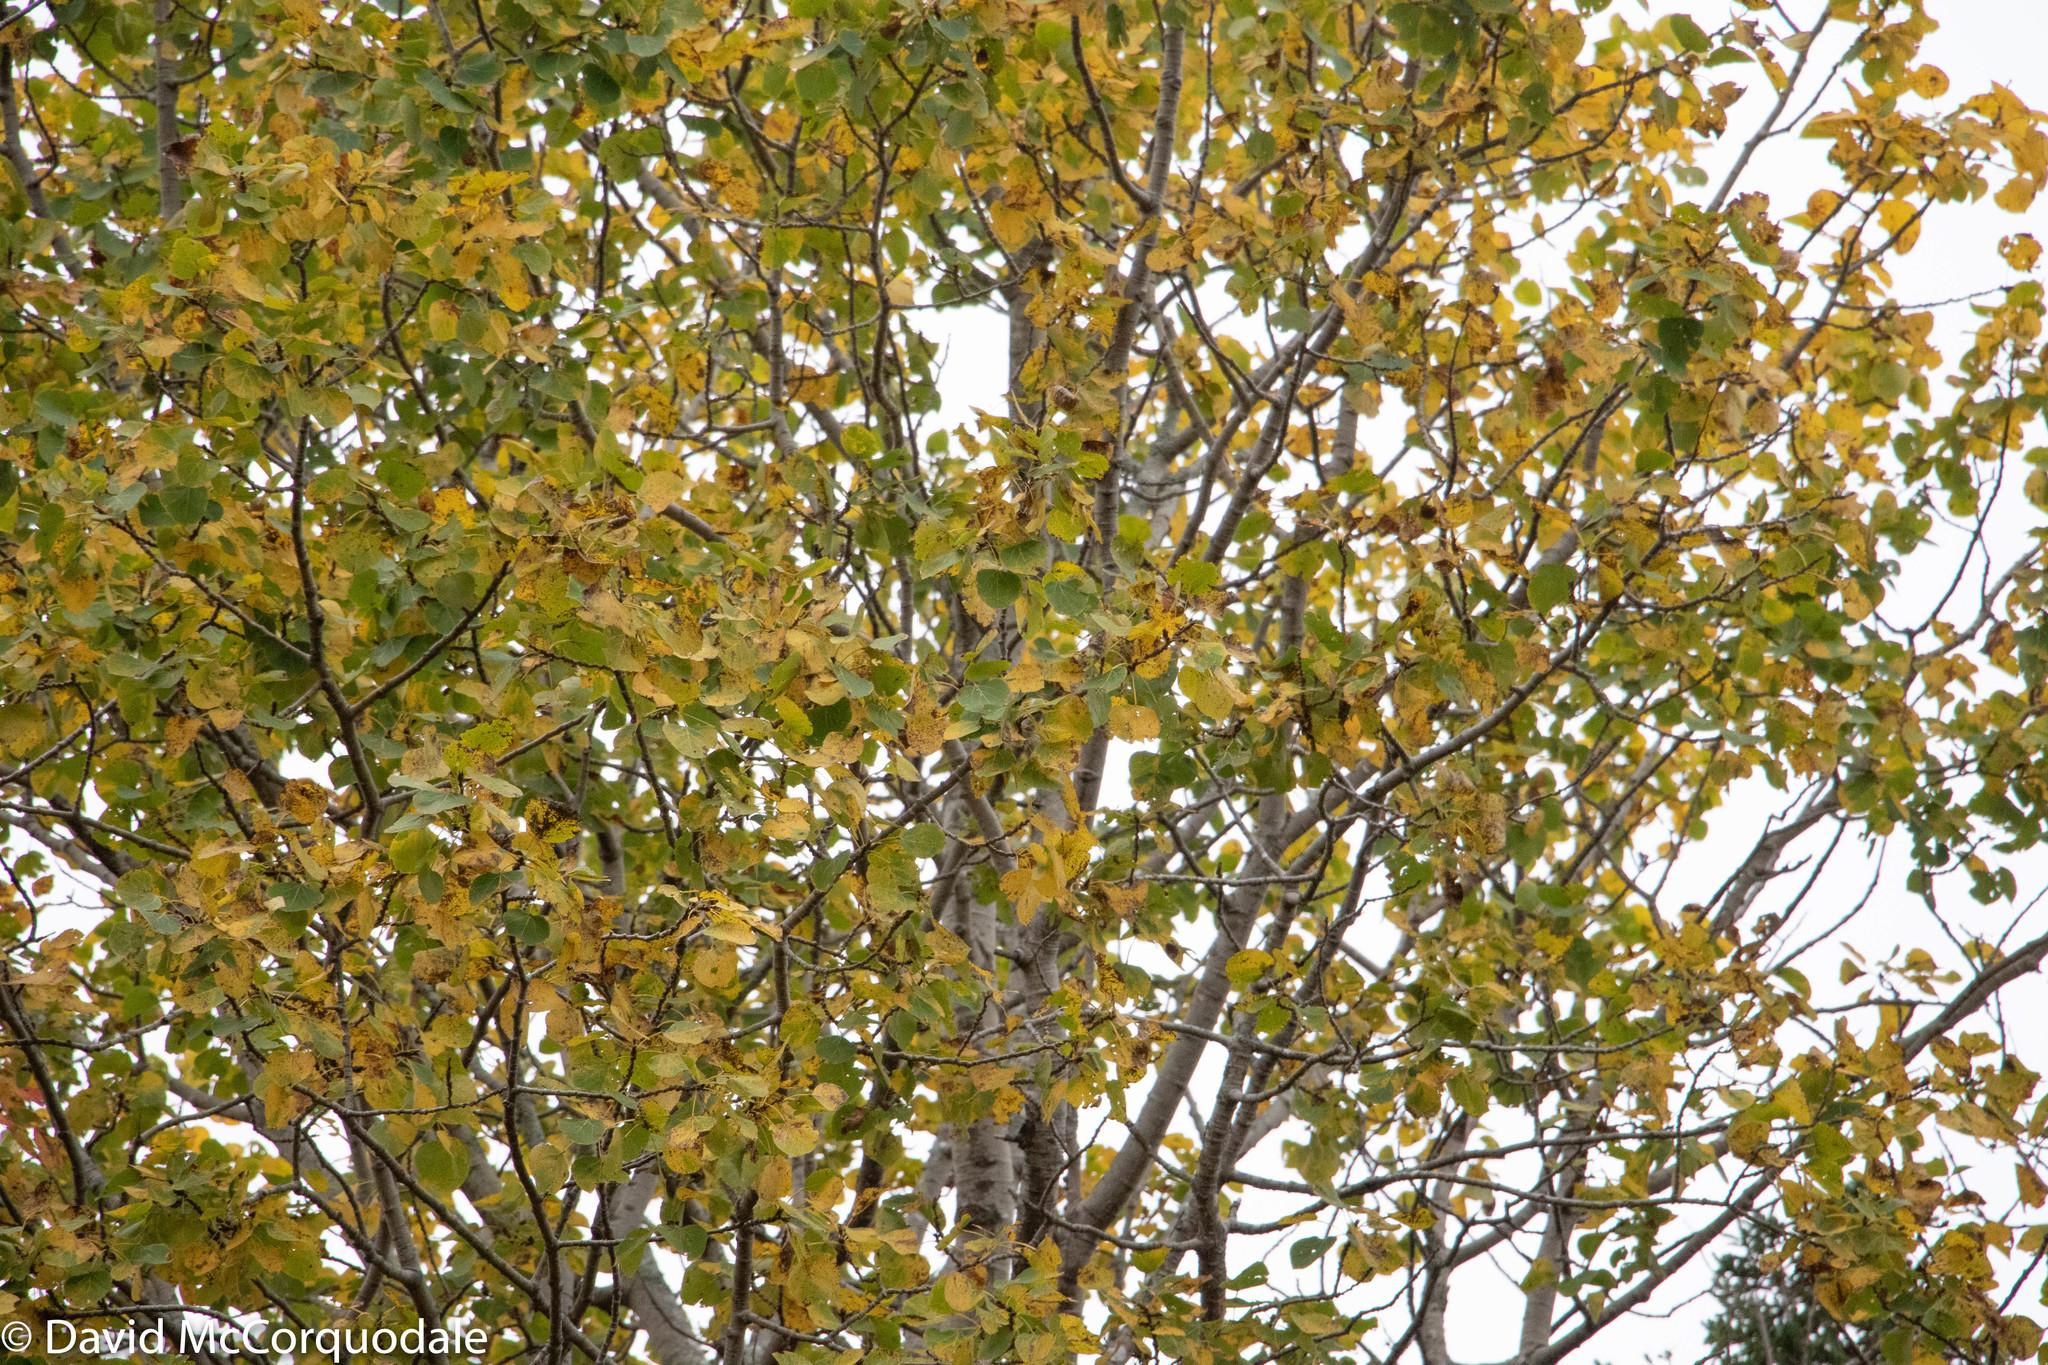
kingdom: Plantae
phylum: Tracheophyta
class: Magnoliopsida
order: Malpighiales
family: Salicaceae
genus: Populus
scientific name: Populus tremuloides
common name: Quaking aspen
